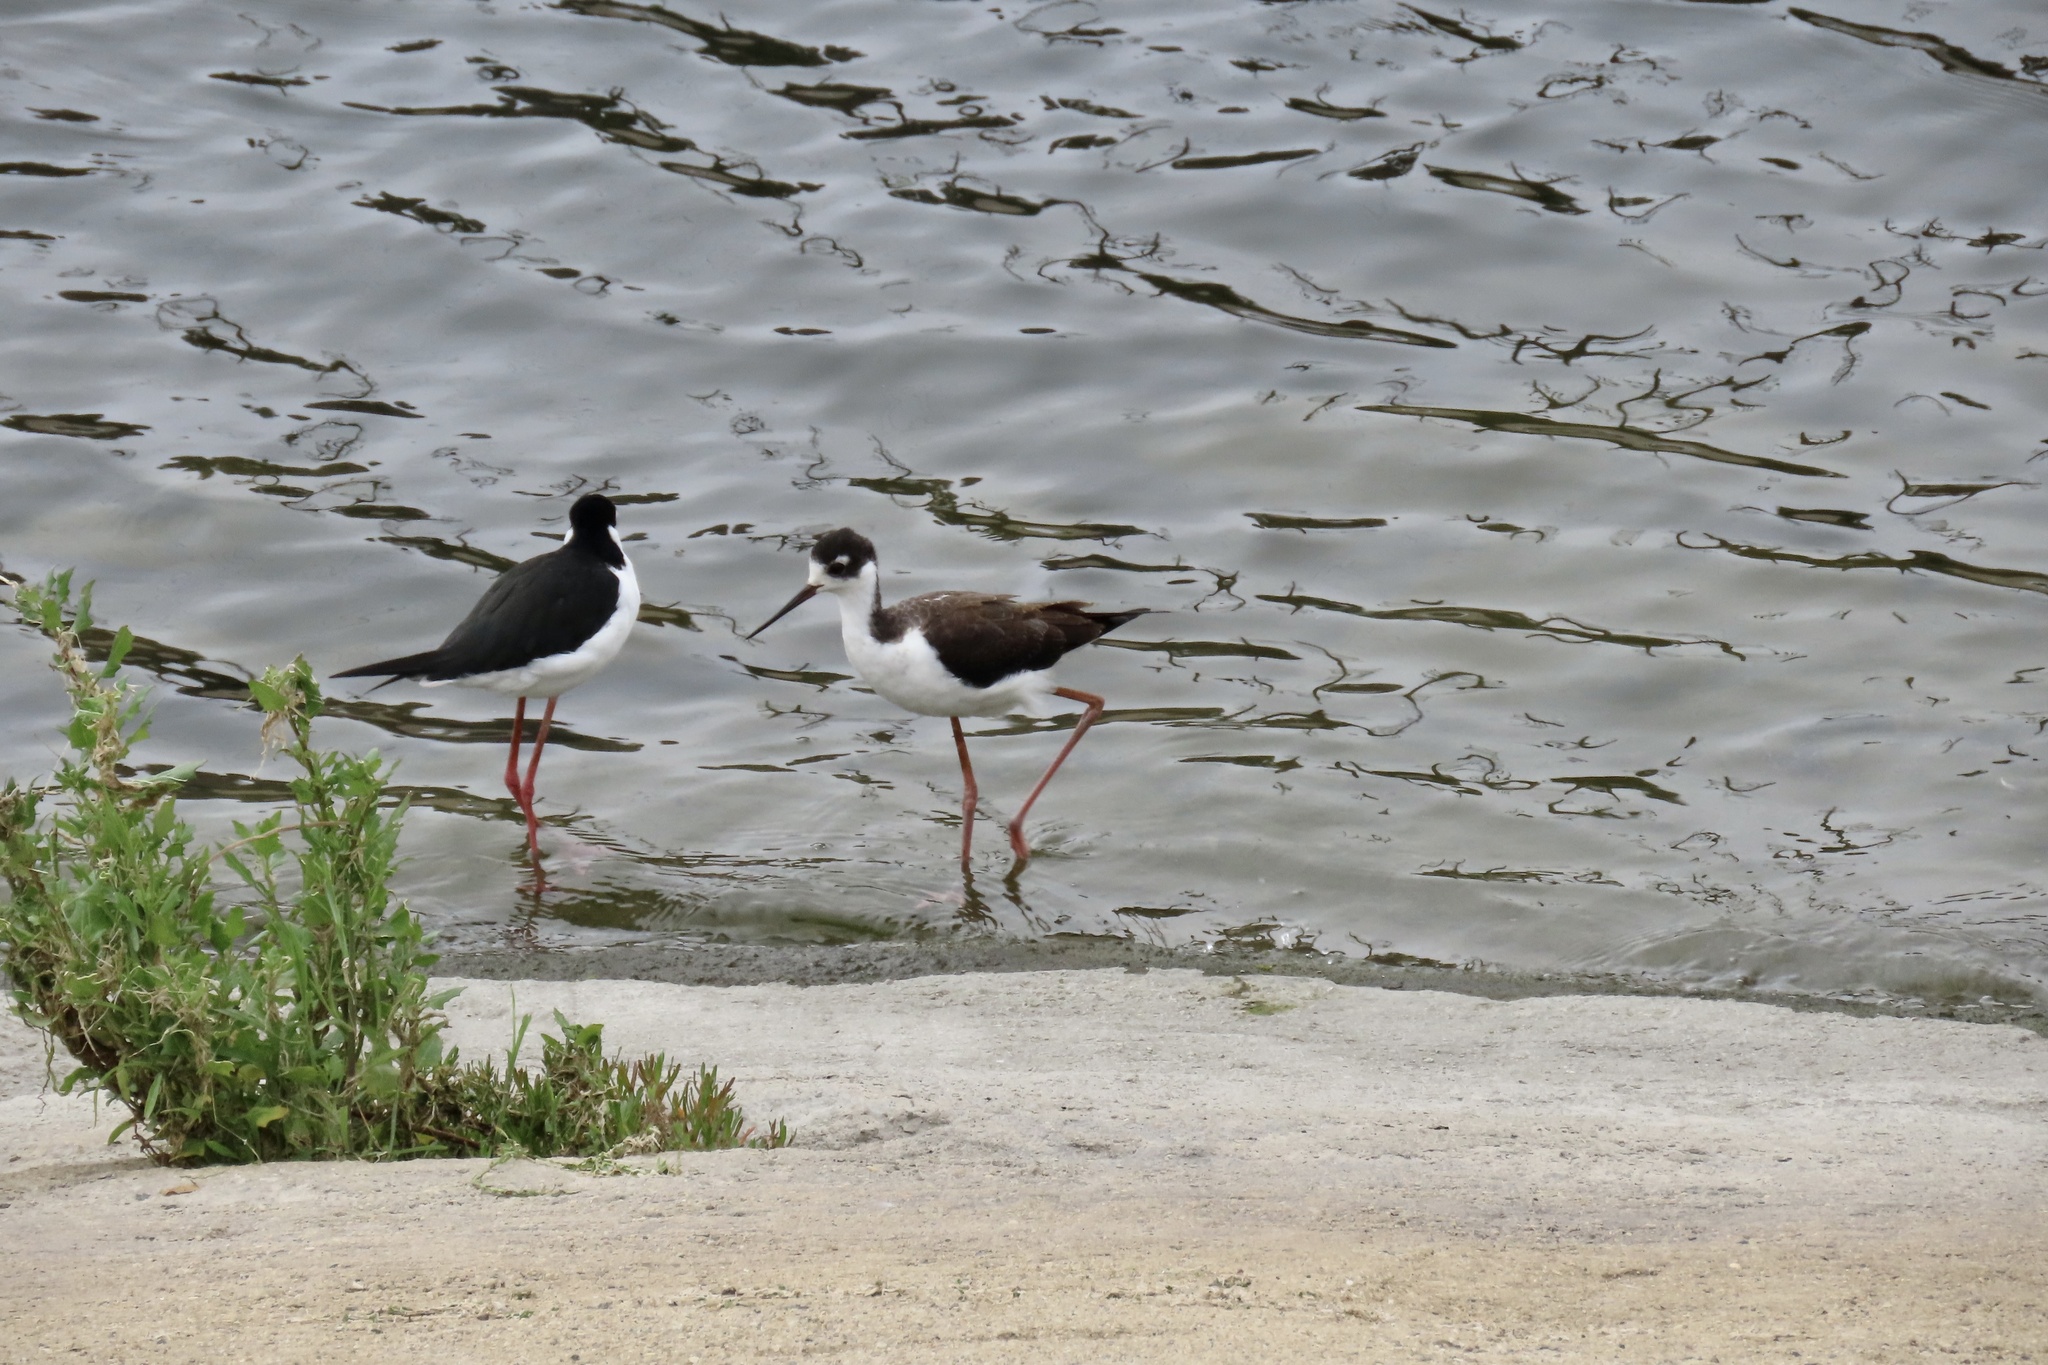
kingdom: Animalia
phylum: Chordata
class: Aves
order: Charadriiformes
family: Recurvirostridae
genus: Himantopus
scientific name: Himantopus mexicanus
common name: Black-necked stilt
